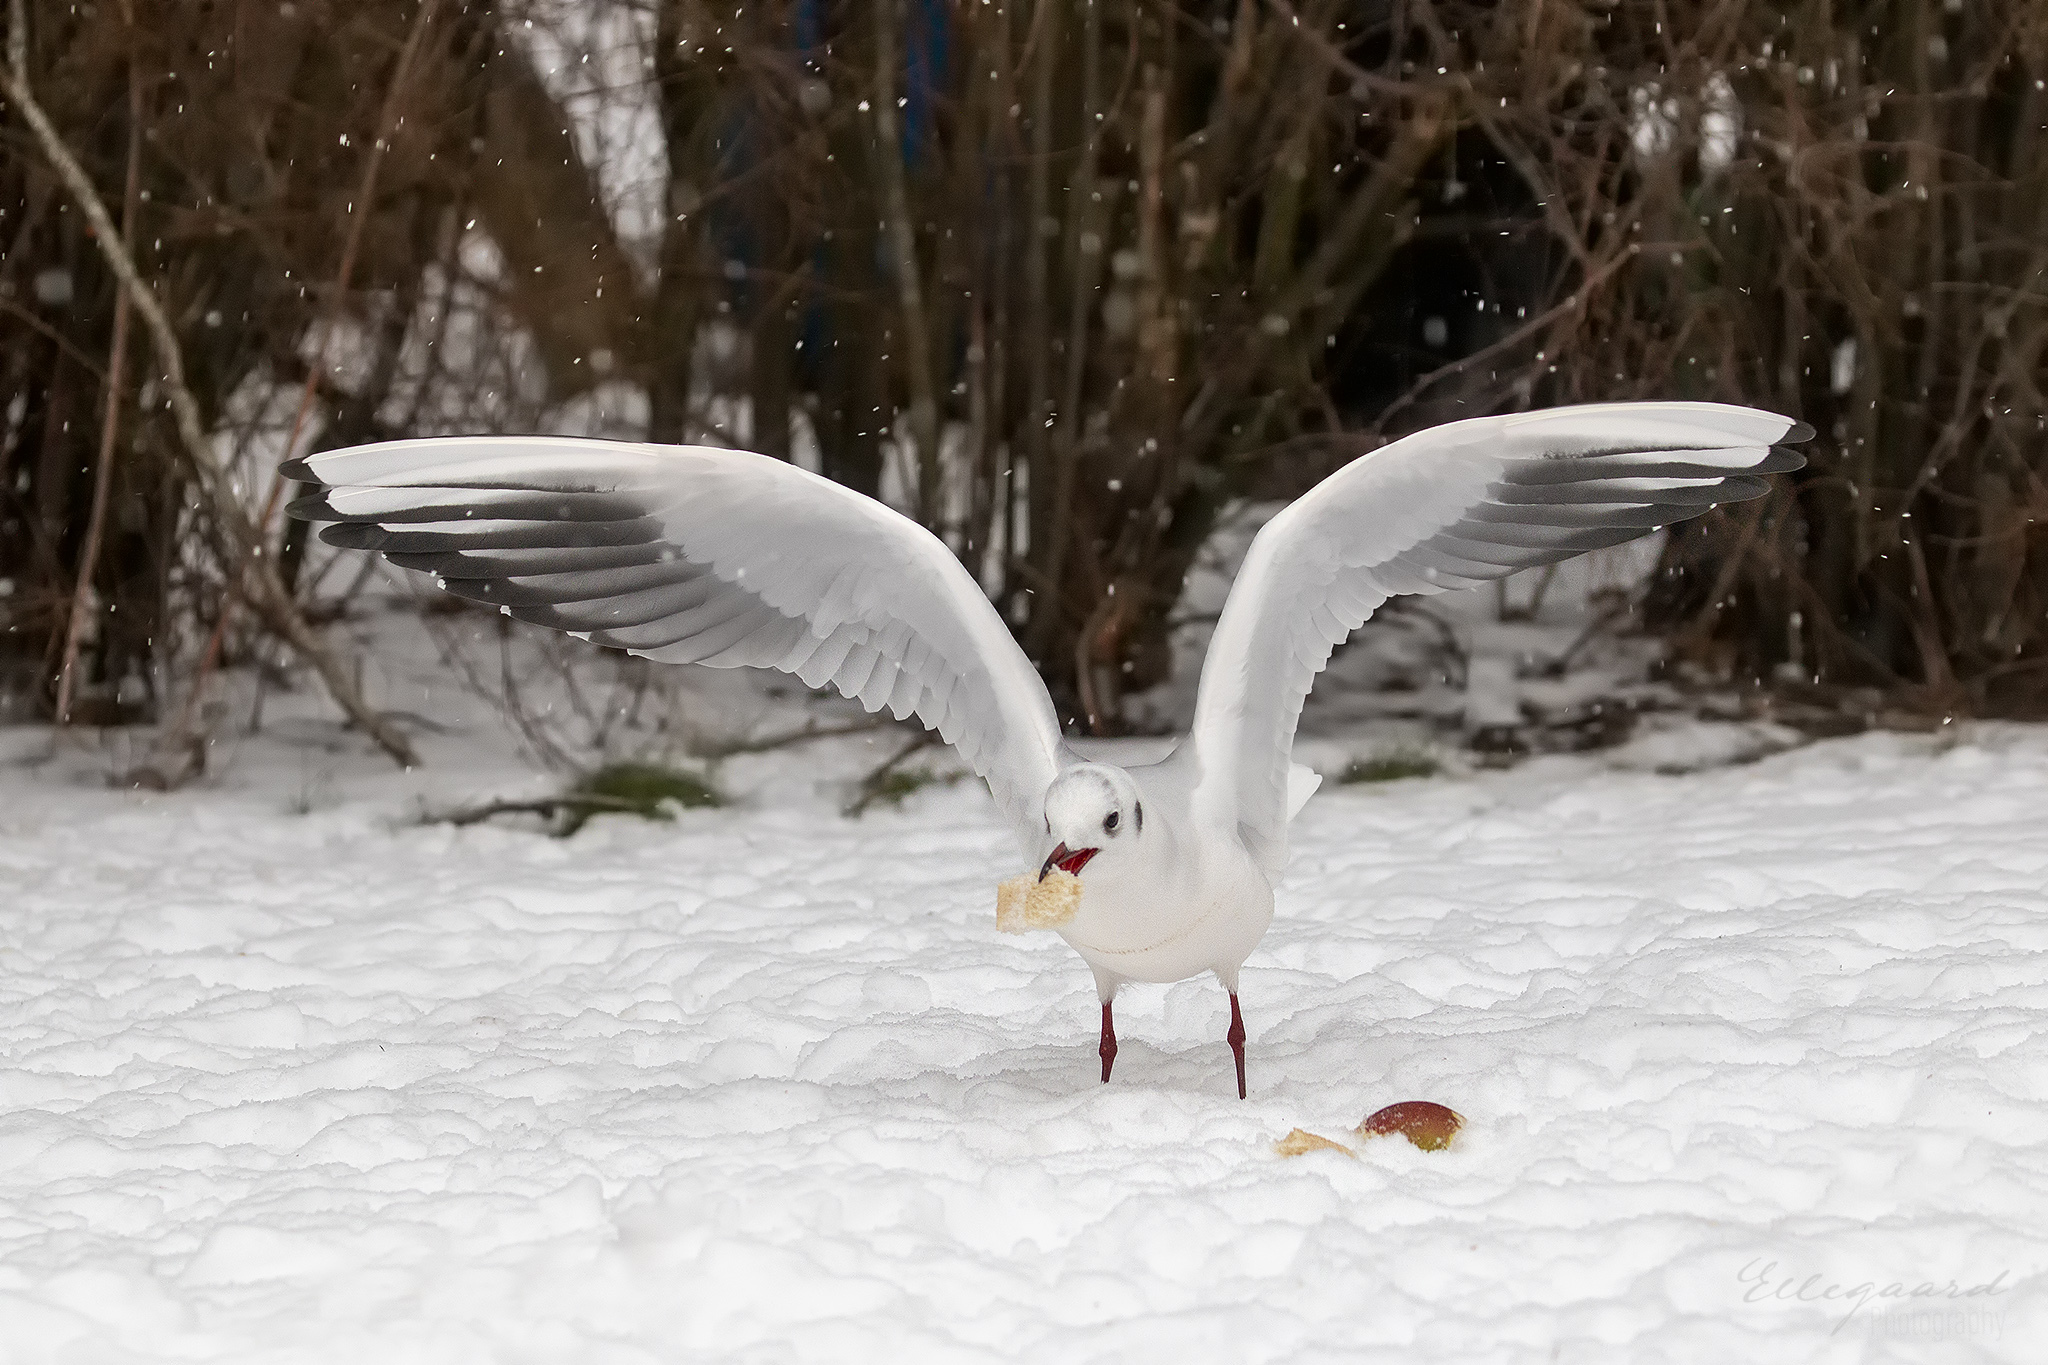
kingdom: Animalia
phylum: Chordata
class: Aves
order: Charadriiformes
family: Laridae
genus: Chroicocephalus
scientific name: Chroicocephalus ridibundus
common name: Black-headed gull
